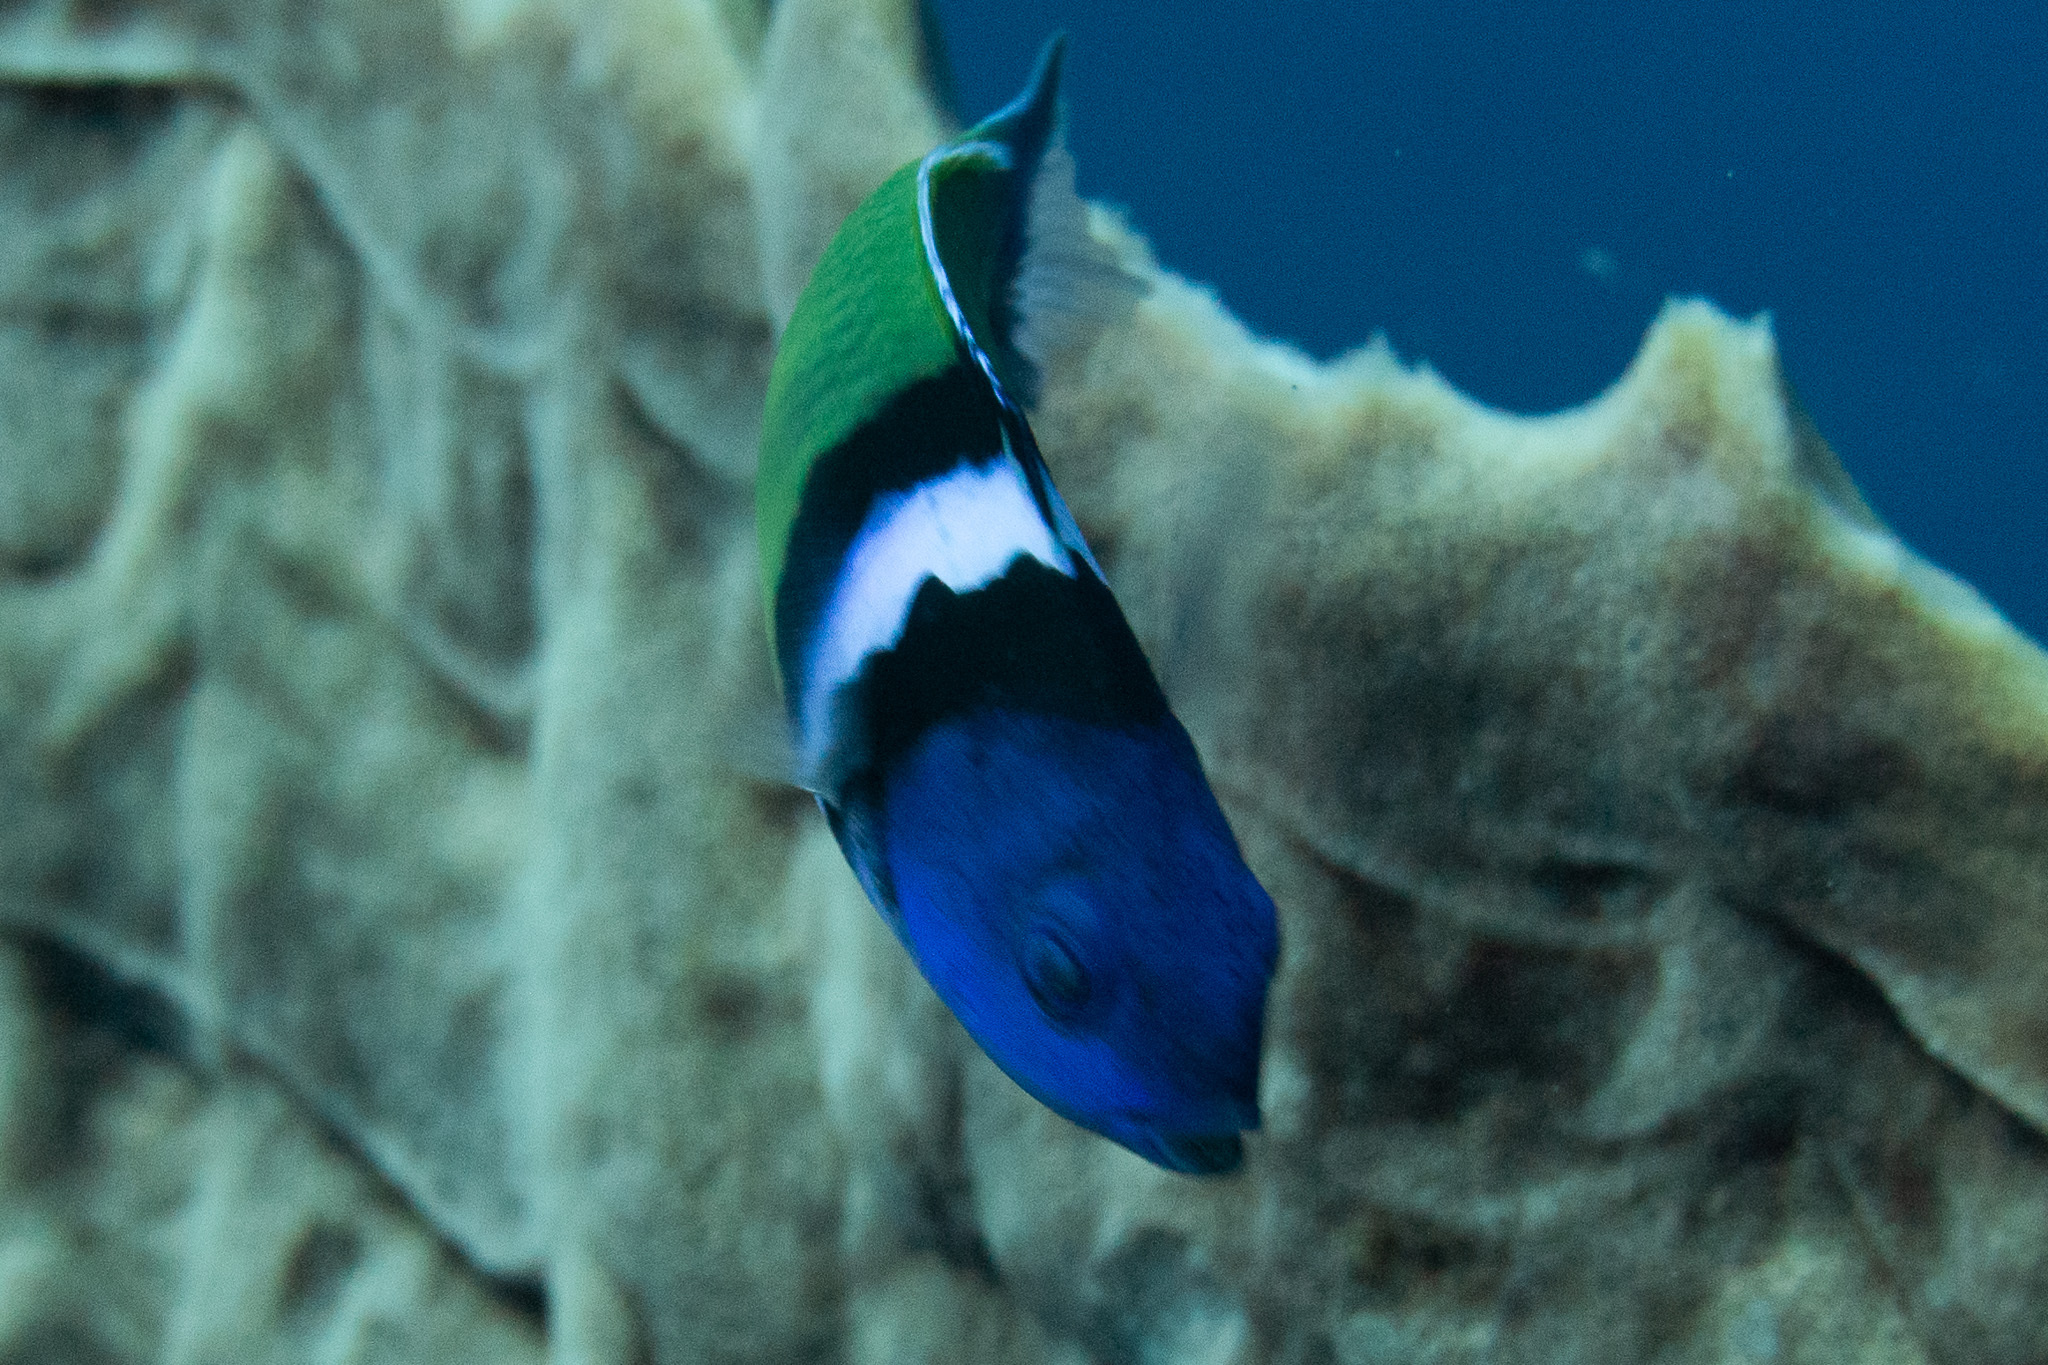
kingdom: Animalia
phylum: Chordata
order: Perciformes
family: Labridae
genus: Thalassoma
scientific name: Thalassoma bifasciatum
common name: Bluehead wrasse
